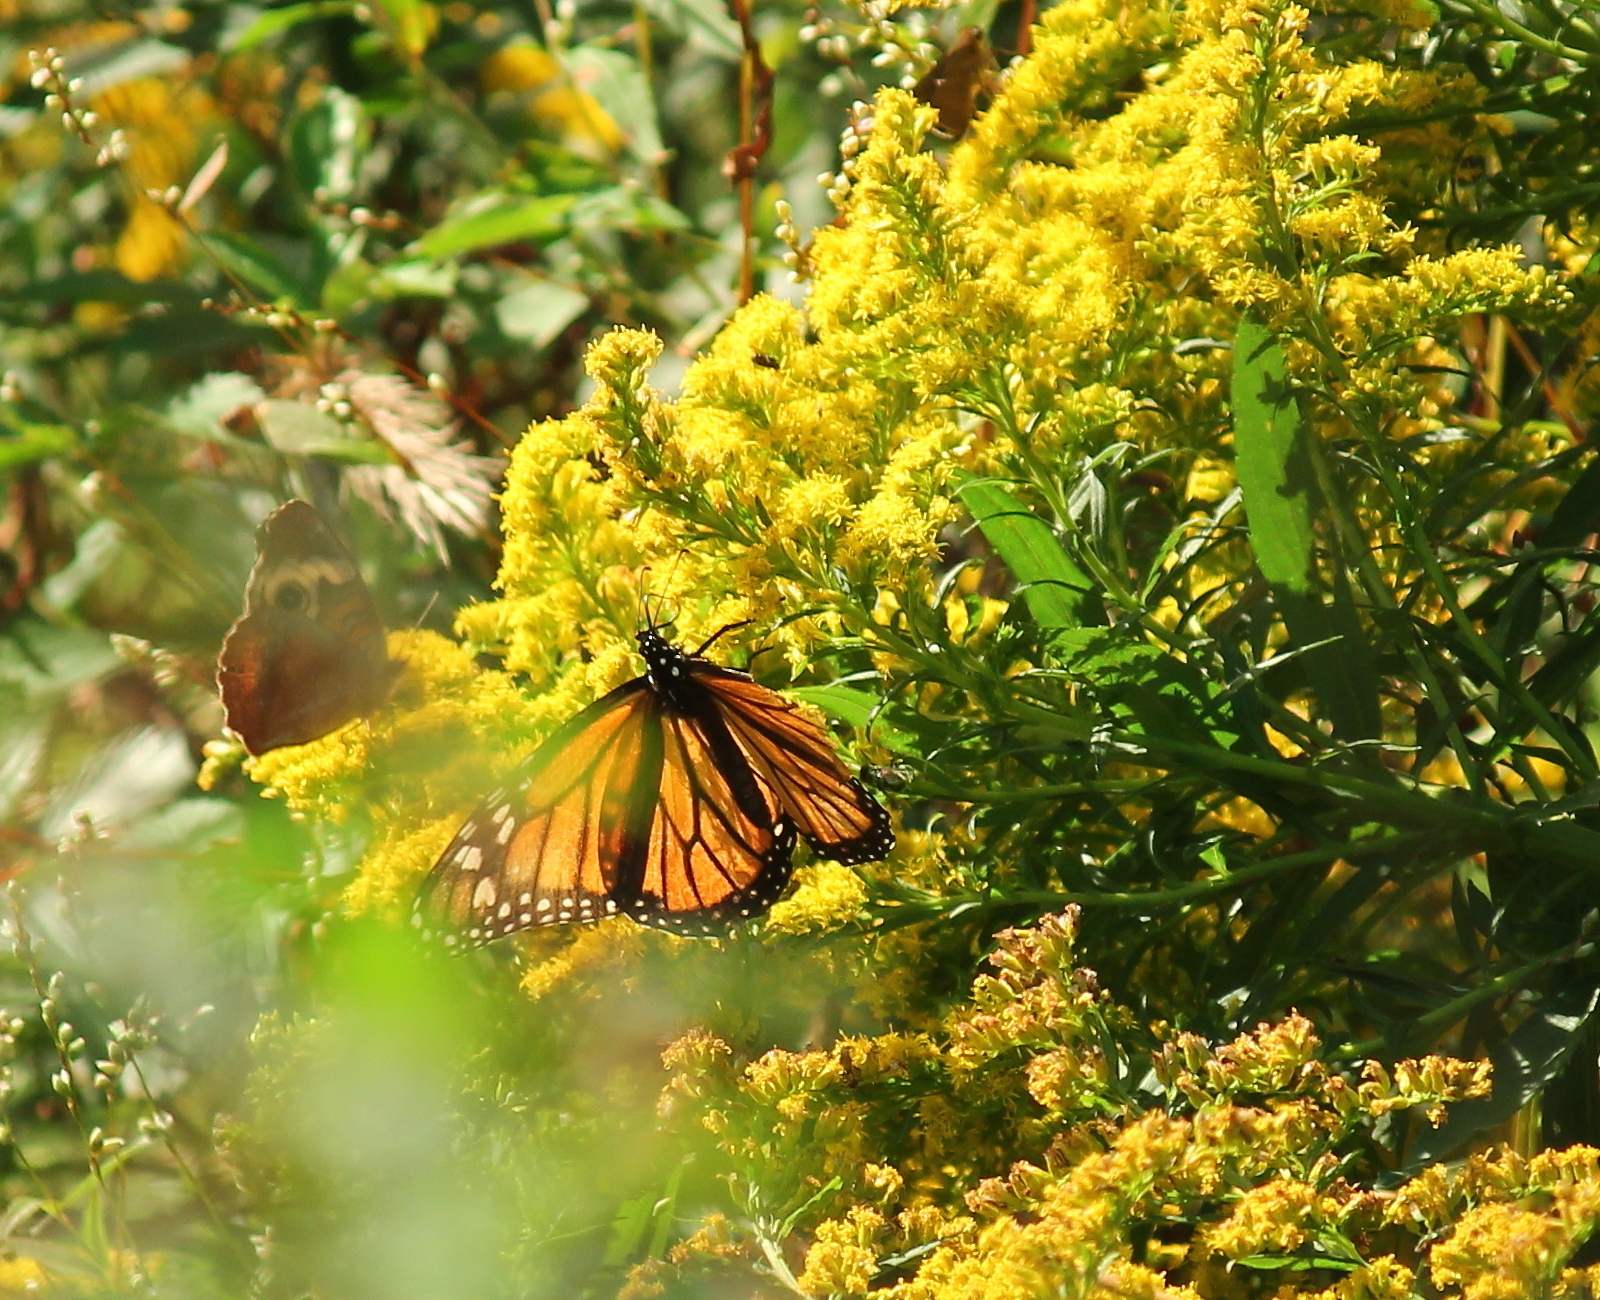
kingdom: Animalia
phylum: Arthropoda
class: Insecta
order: Lepidoptera
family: Nymphalidae
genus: Danaus
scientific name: Danaus plexippus
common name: Monarch
